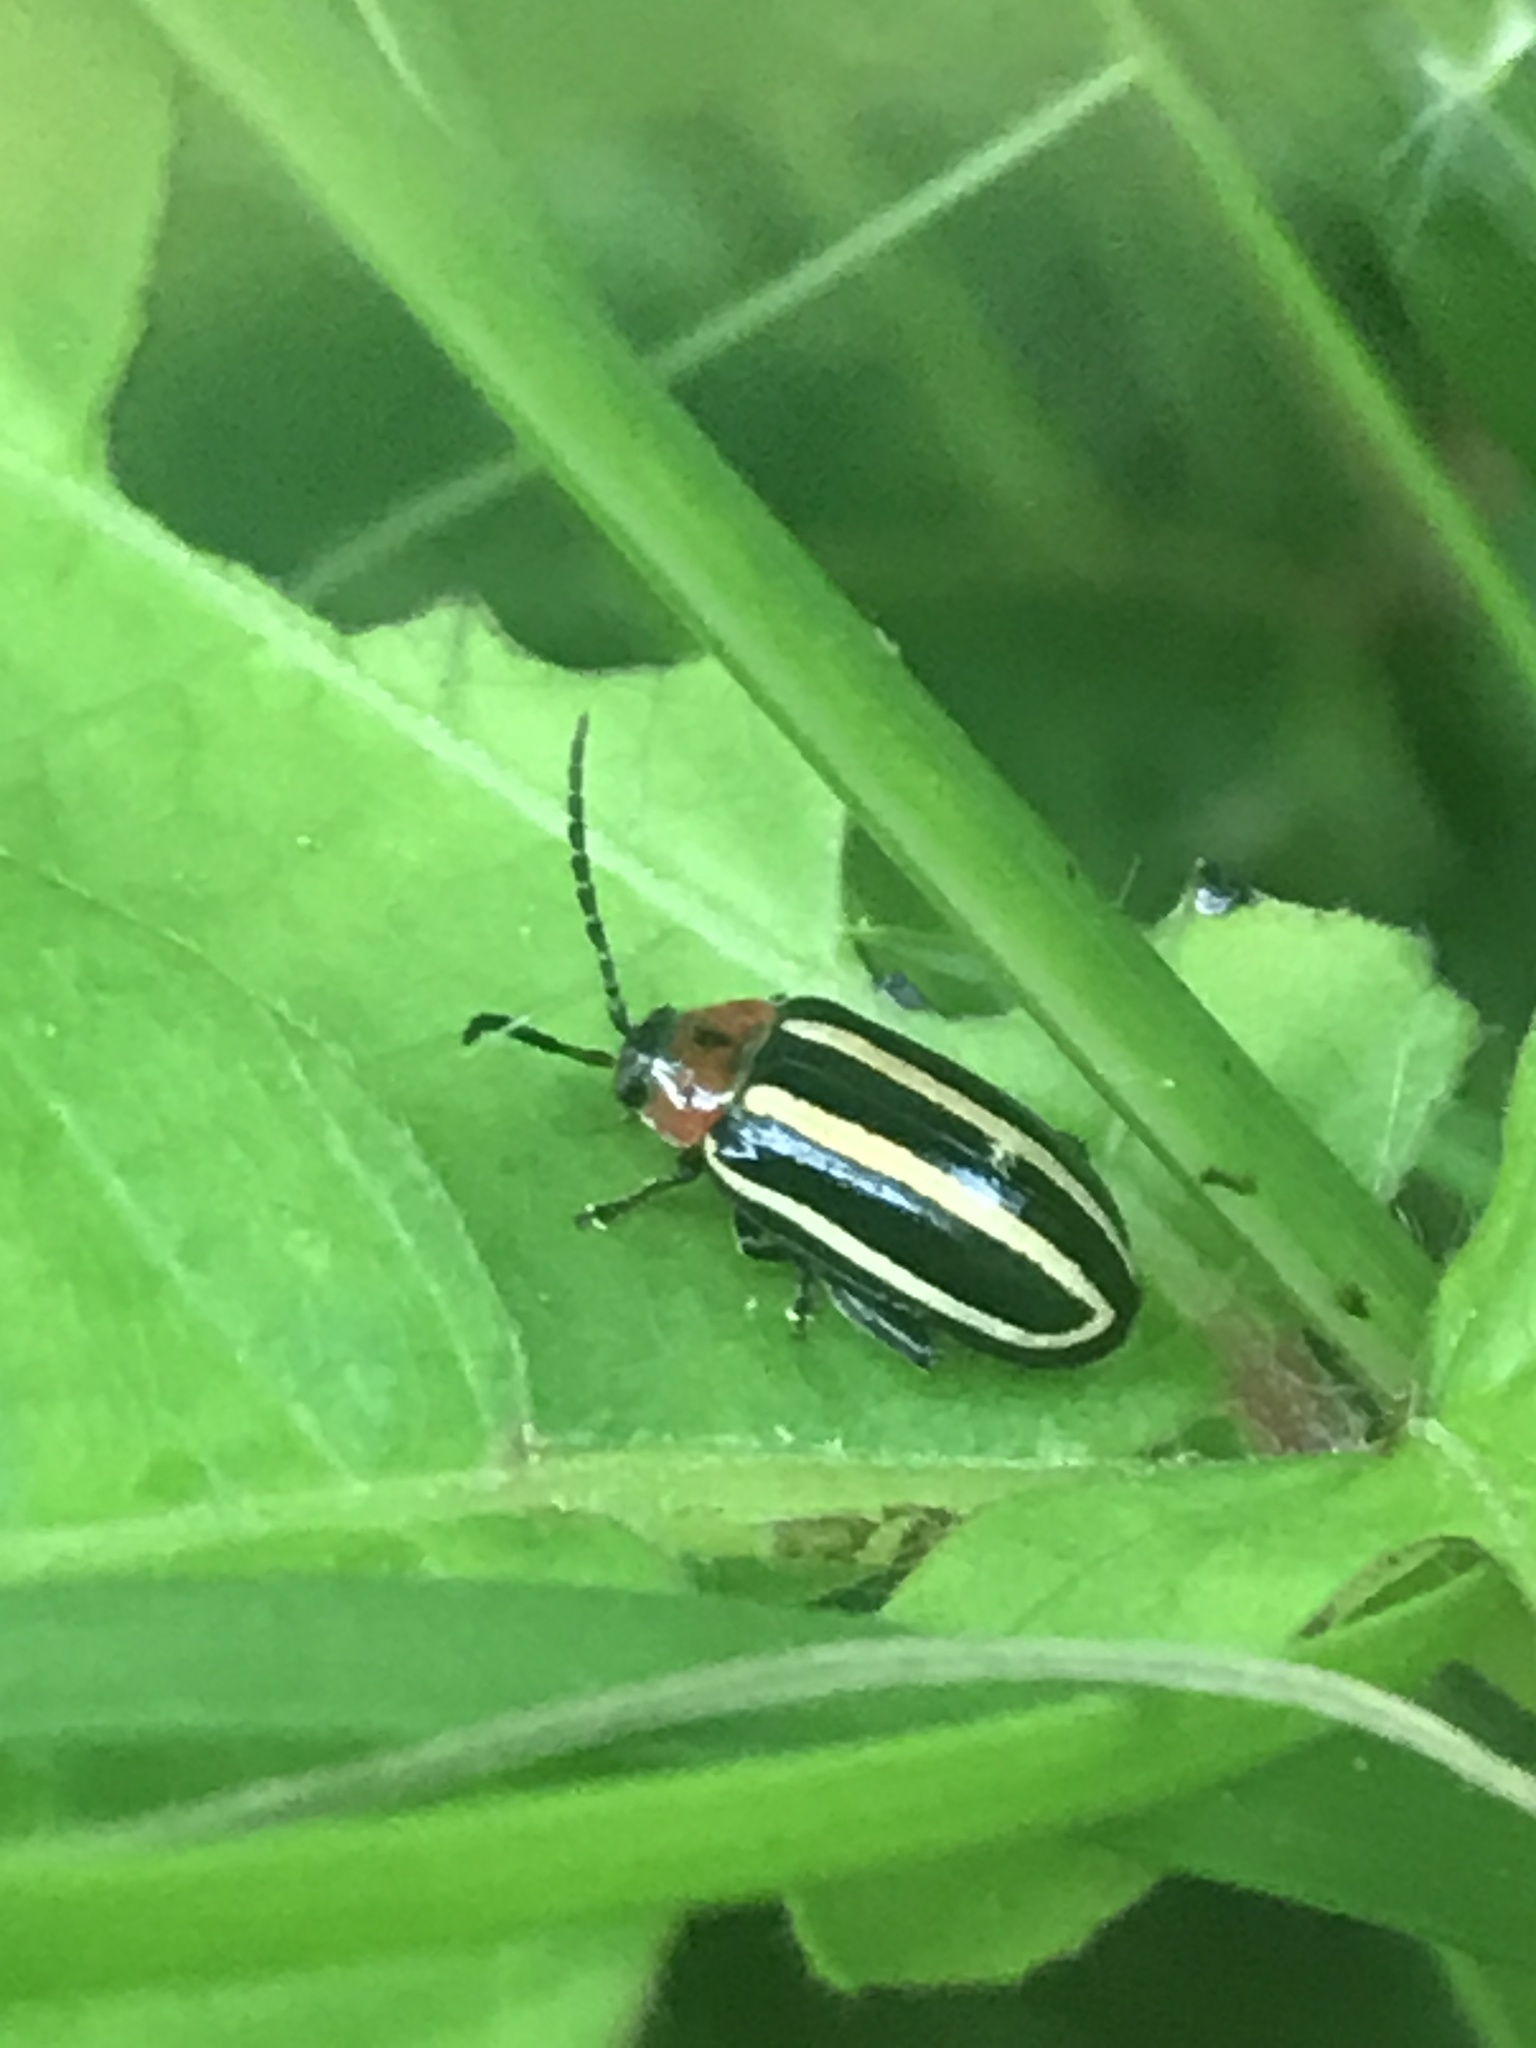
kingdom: Animalia
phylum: Arthropoda
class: Insecta
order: Coleoptera
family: Chrysomelidae
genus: Disonycha
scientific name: Disonycha glabrata
